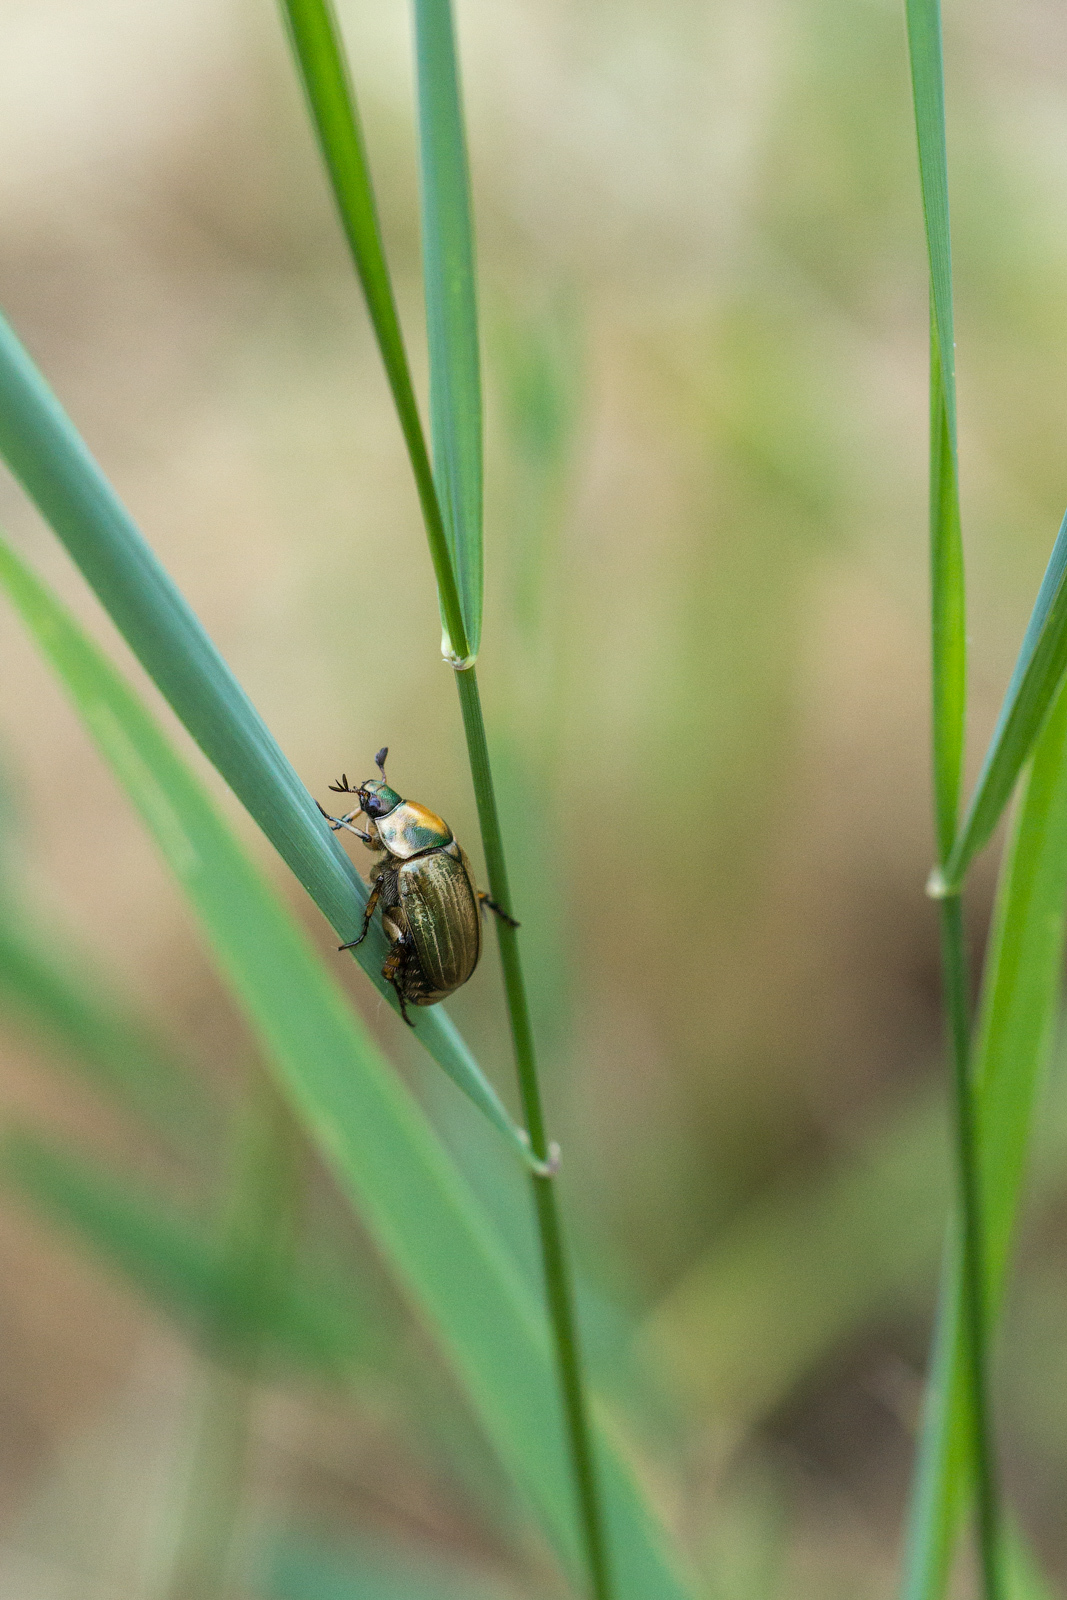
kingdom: Animalia
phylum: Arthropoda
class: Insecta
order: Coleoptera
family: Scarabaeidae
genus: Anomala
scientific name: Anomala dubia
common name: Dune chafer
